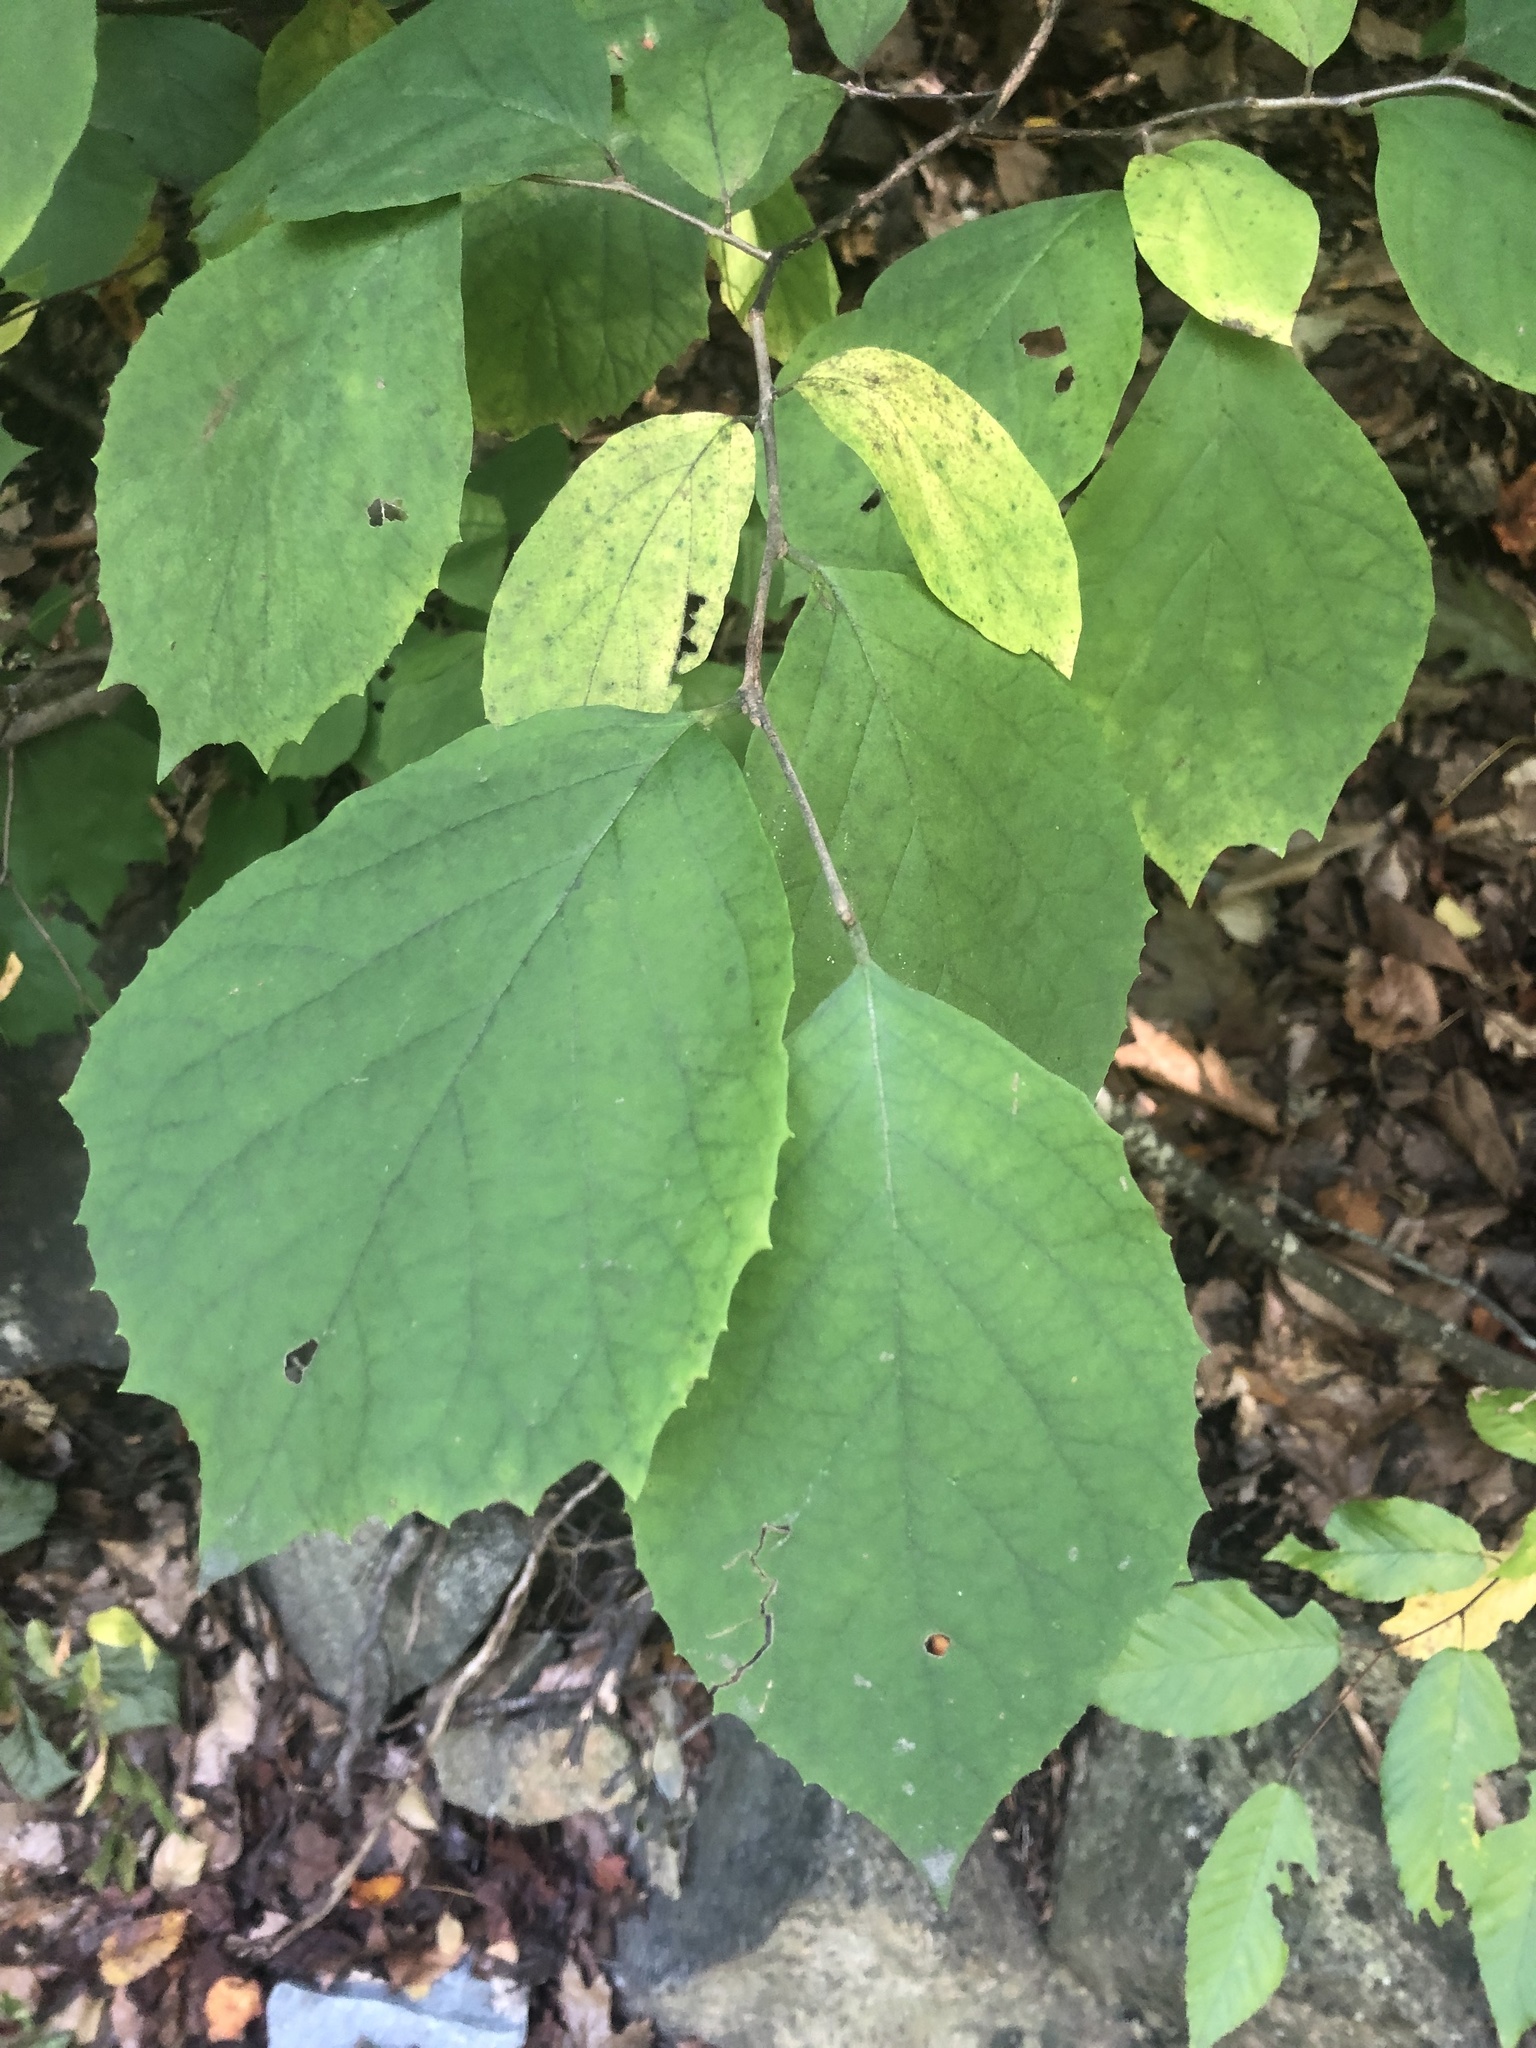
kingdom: Plantae
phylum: Tracheophyta
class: Magnoliopsida
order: Ericales
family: Styracaceae
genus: Styrax
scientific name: Styrax grandifolius
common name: Big-leaf snowbell
